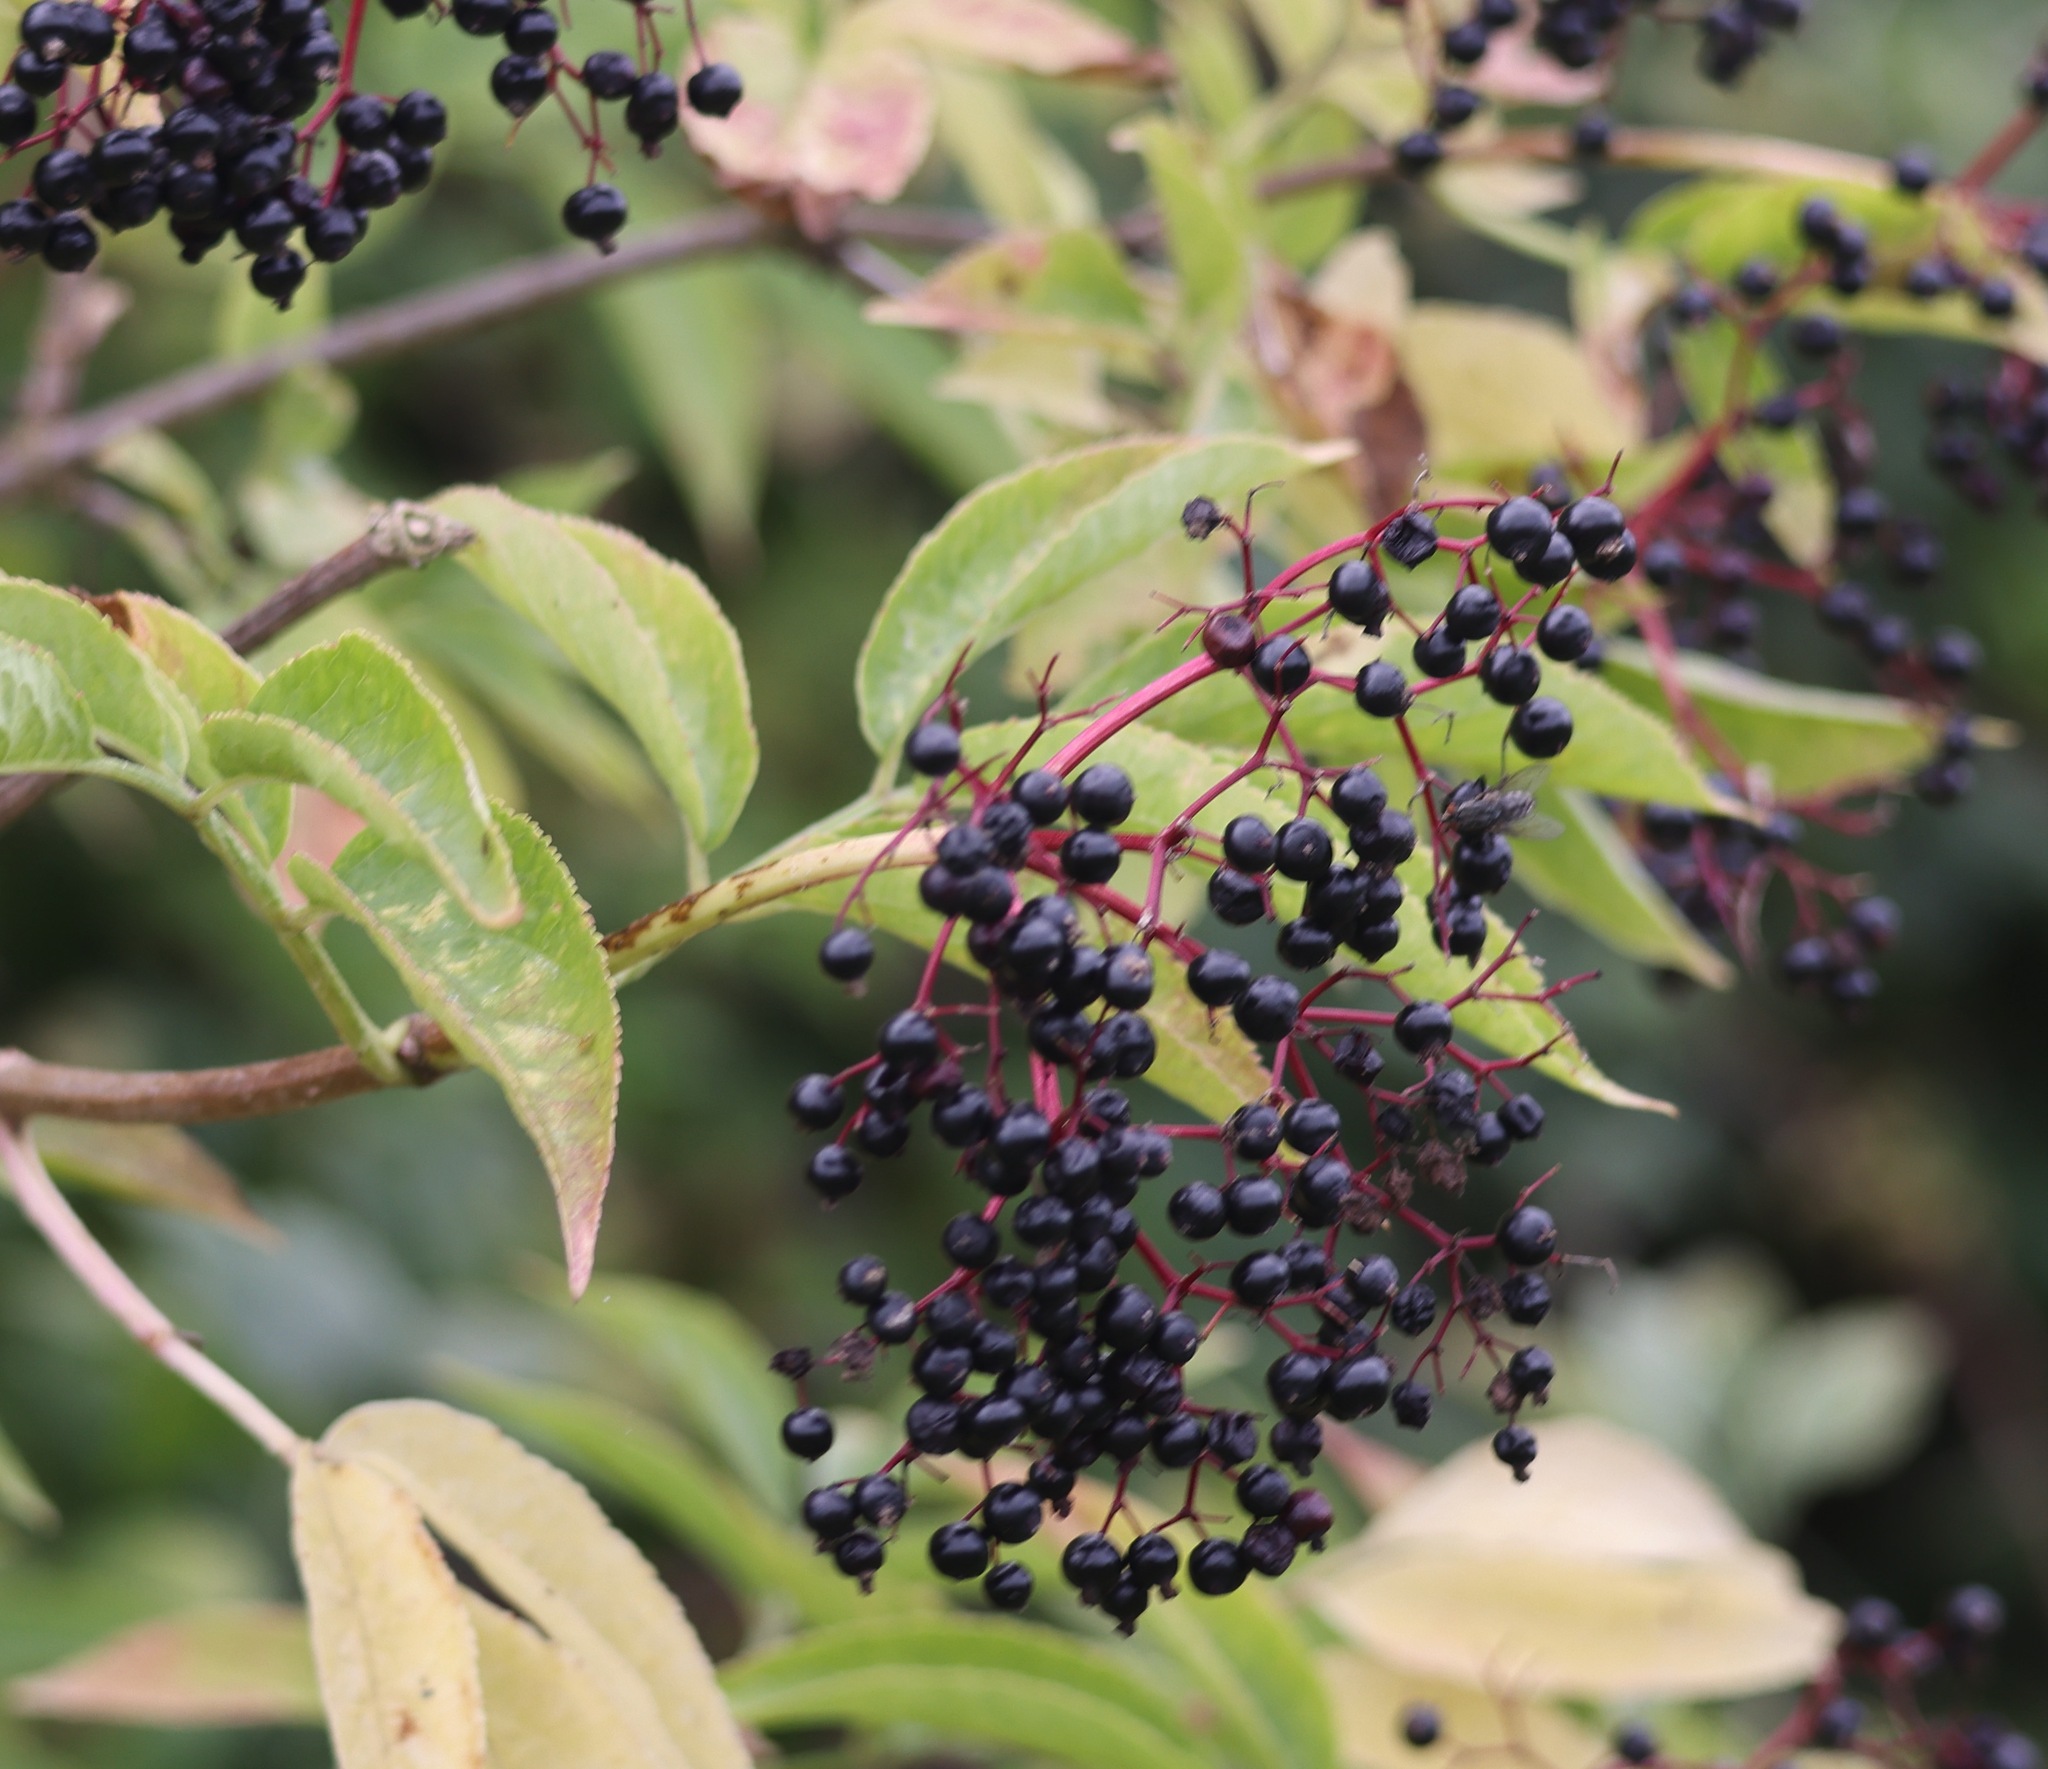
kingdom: Plantae
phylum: Tracheophyta
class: Magnoliopsida
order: Dipsacales
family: Viburnaceae
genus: Sambucus
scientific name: Sambucus nigra
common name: Elder
